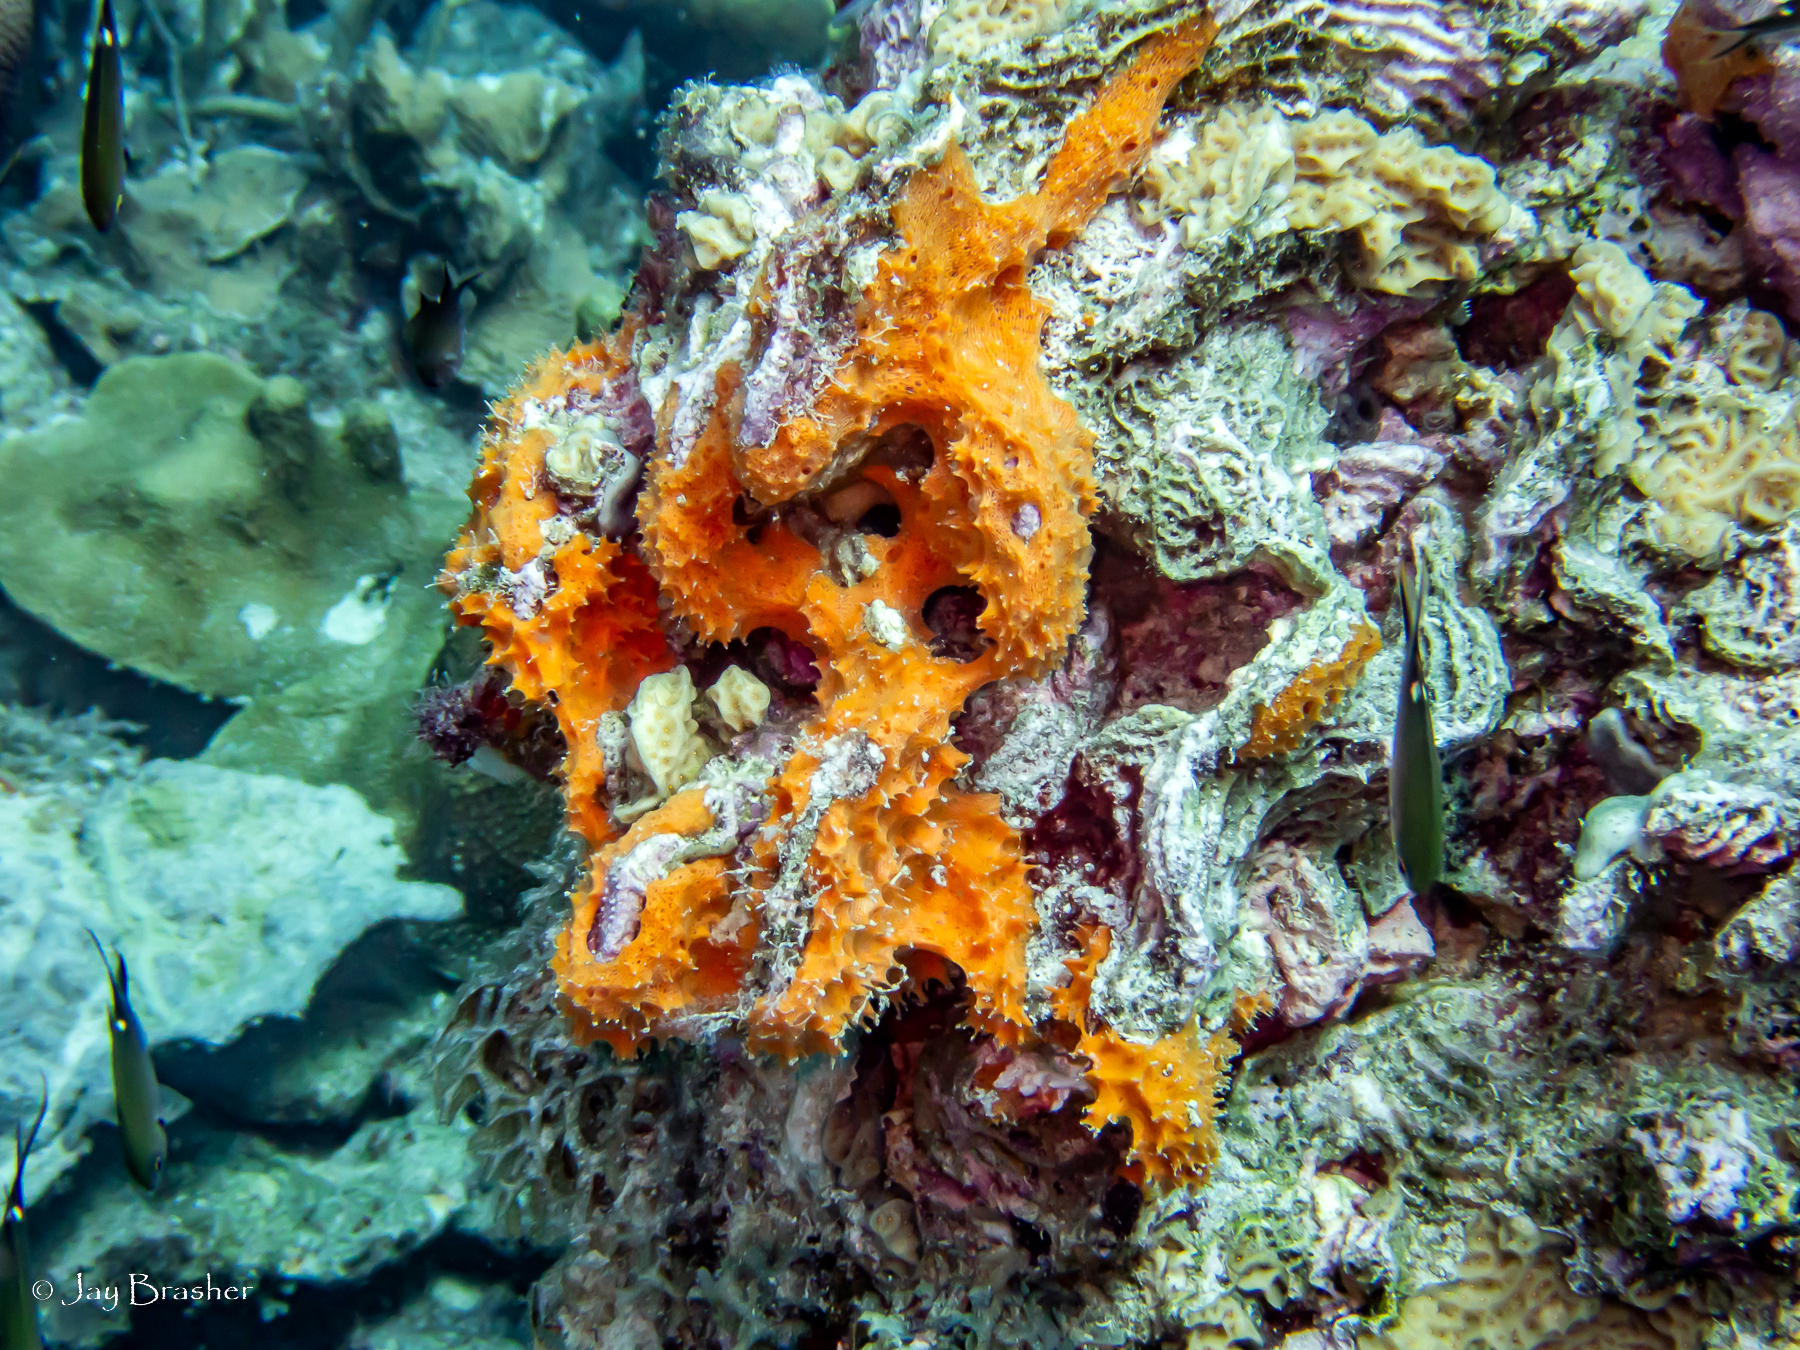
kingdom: Animalia
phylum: Porifera
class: Demospongiae
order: Scopalinida
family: Scopalinidae
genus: Scopalina
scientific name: Scopalina ruetzleri
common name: Orange lumpy encrusting sponge
